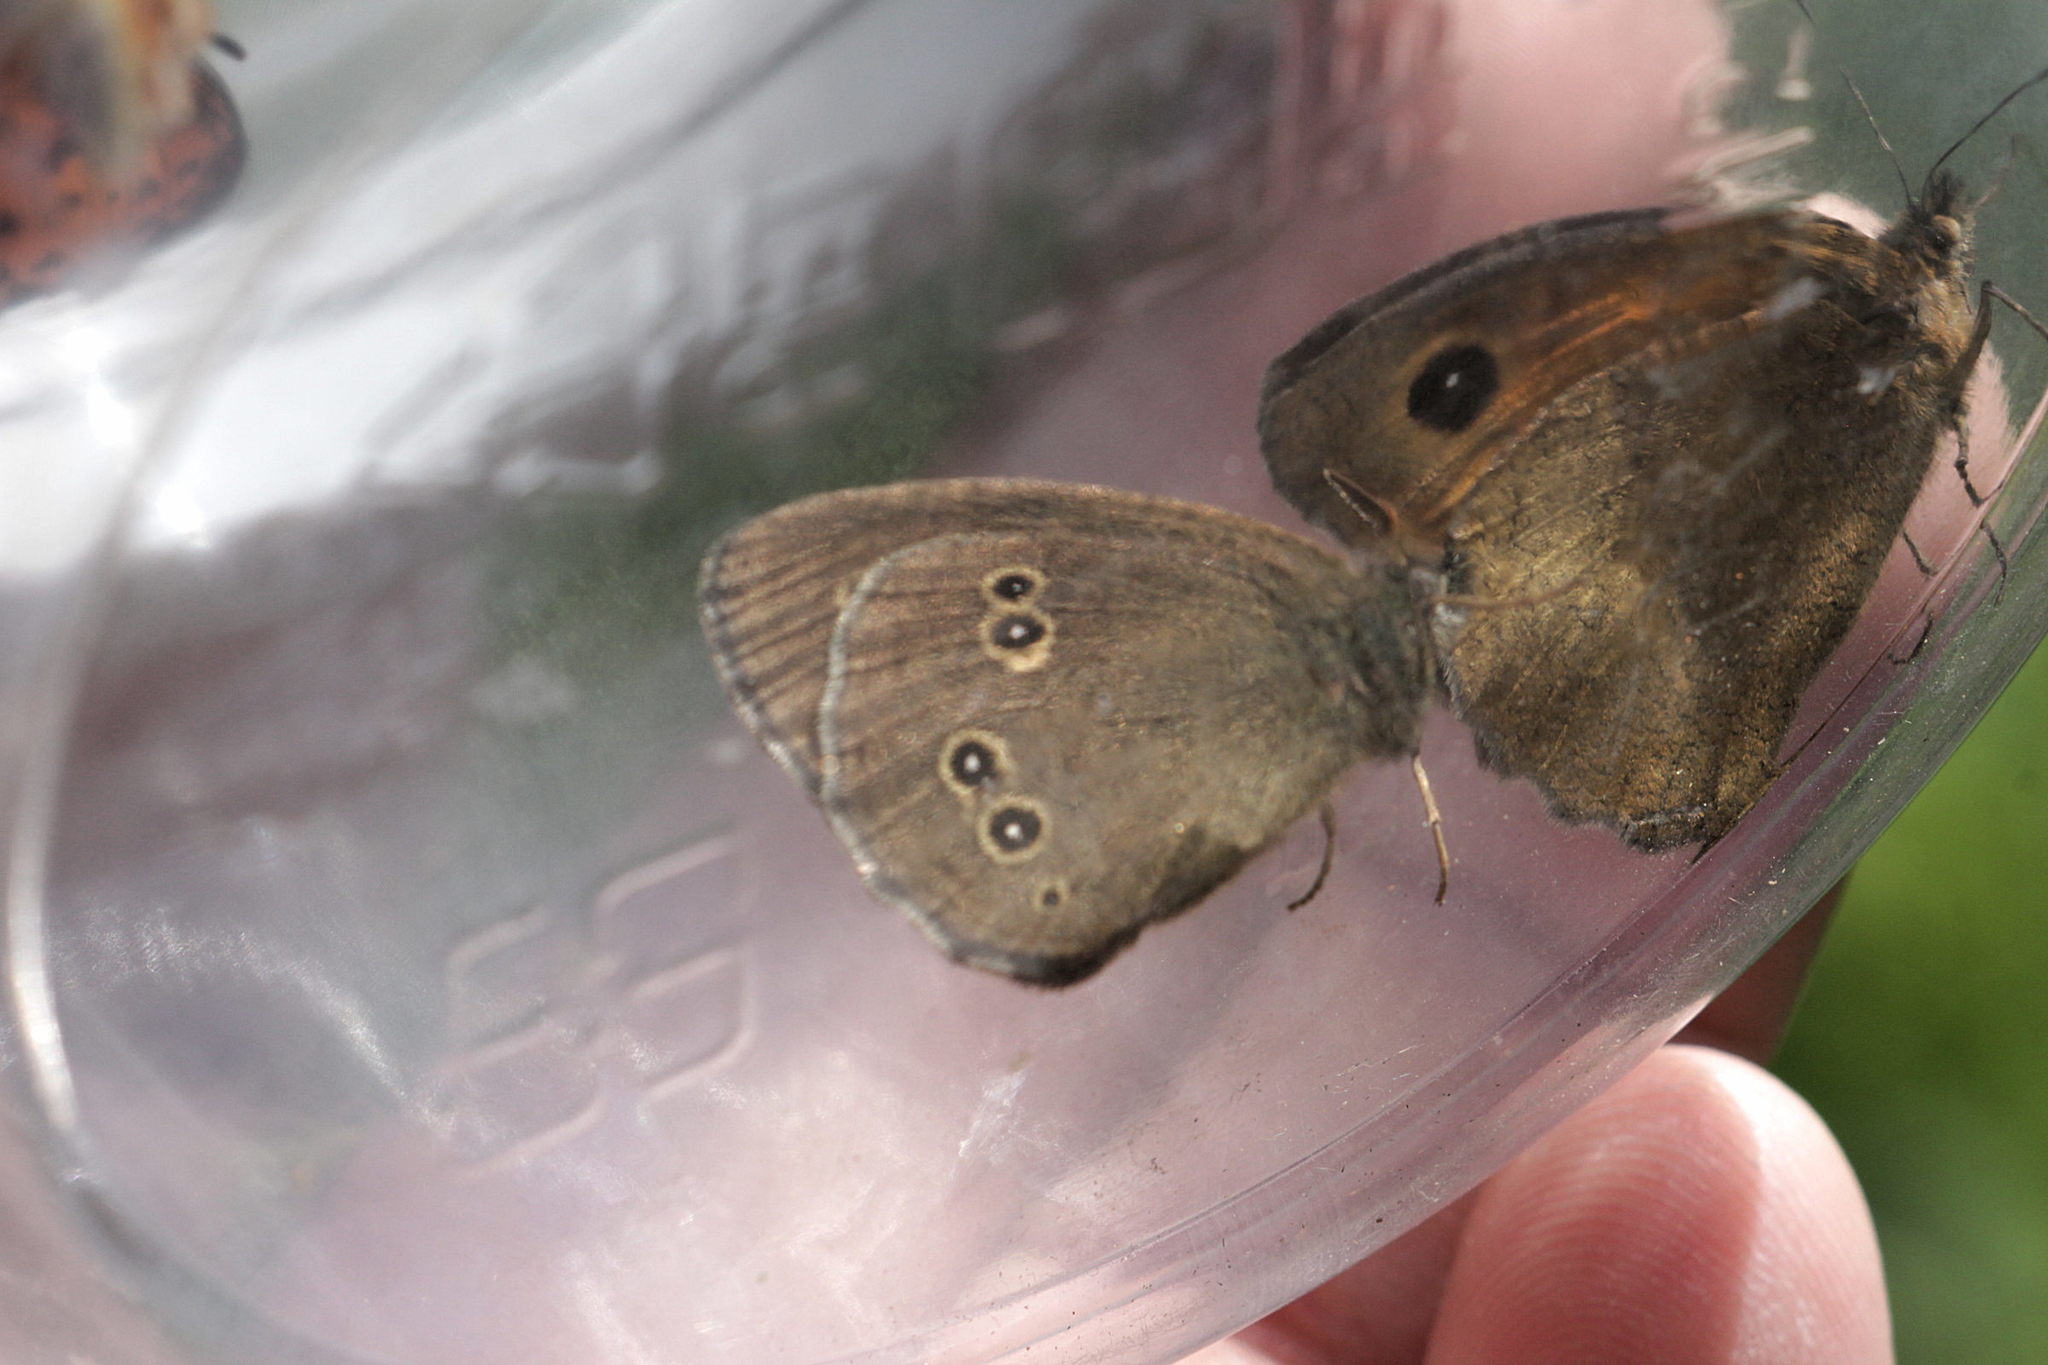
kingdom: Animalia
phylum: Arthropoda
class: Insecta
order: Lepidoptera
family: Nymphalidae
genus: Maniola
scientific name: Maniola jurtina
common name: Meadow brown
